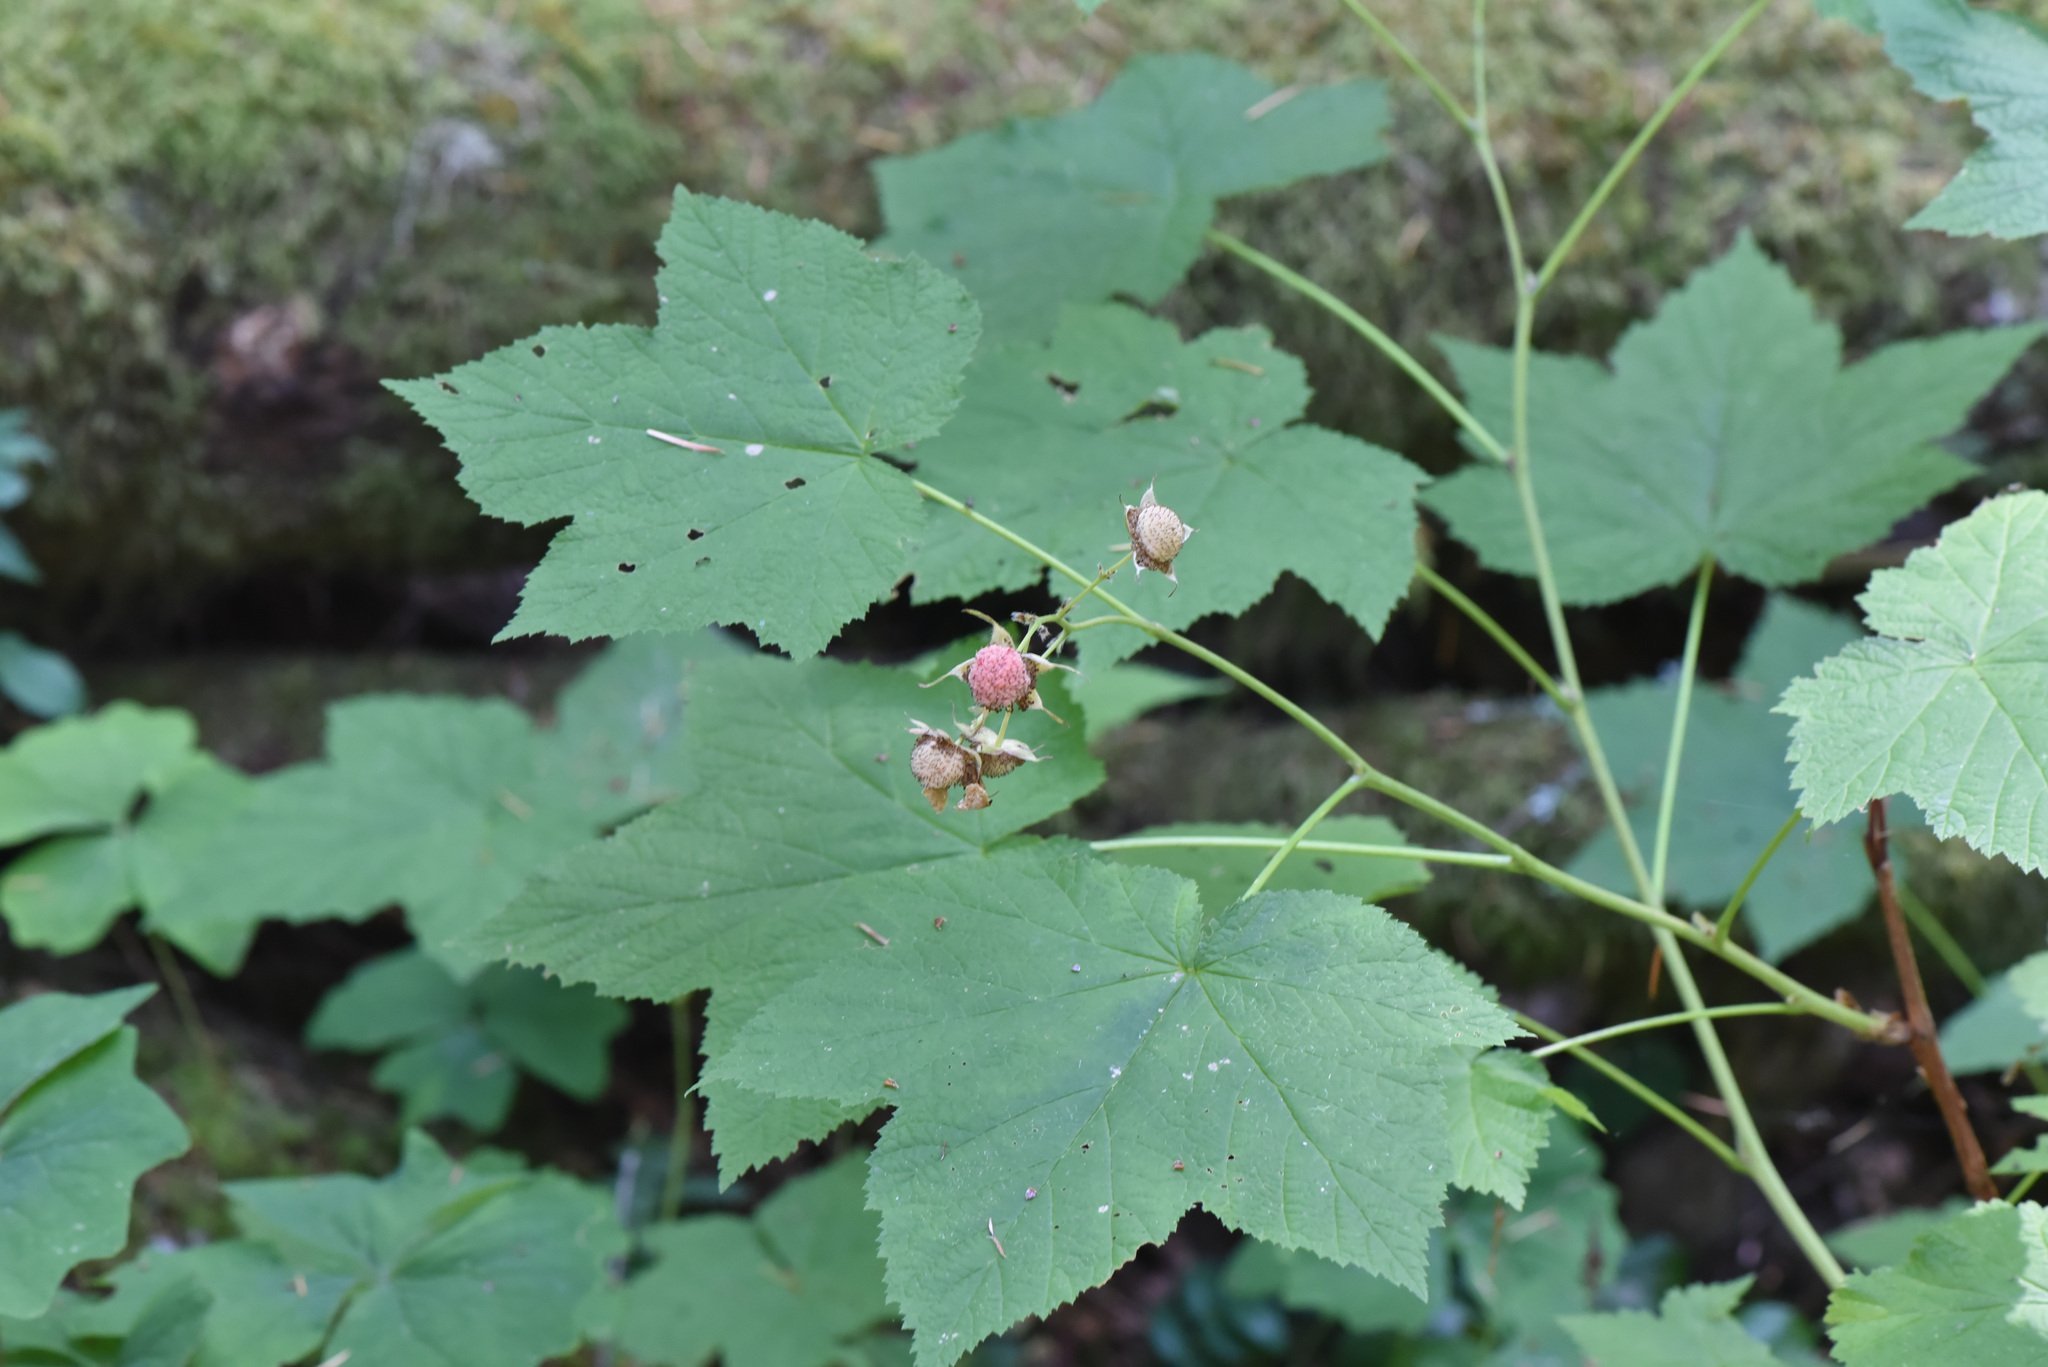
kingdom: Plantae
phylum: Tracheophyta
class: Magnoliopsida
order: Rosales
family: Rosaceae
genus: Rubus
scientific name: Rubus parviflorus
